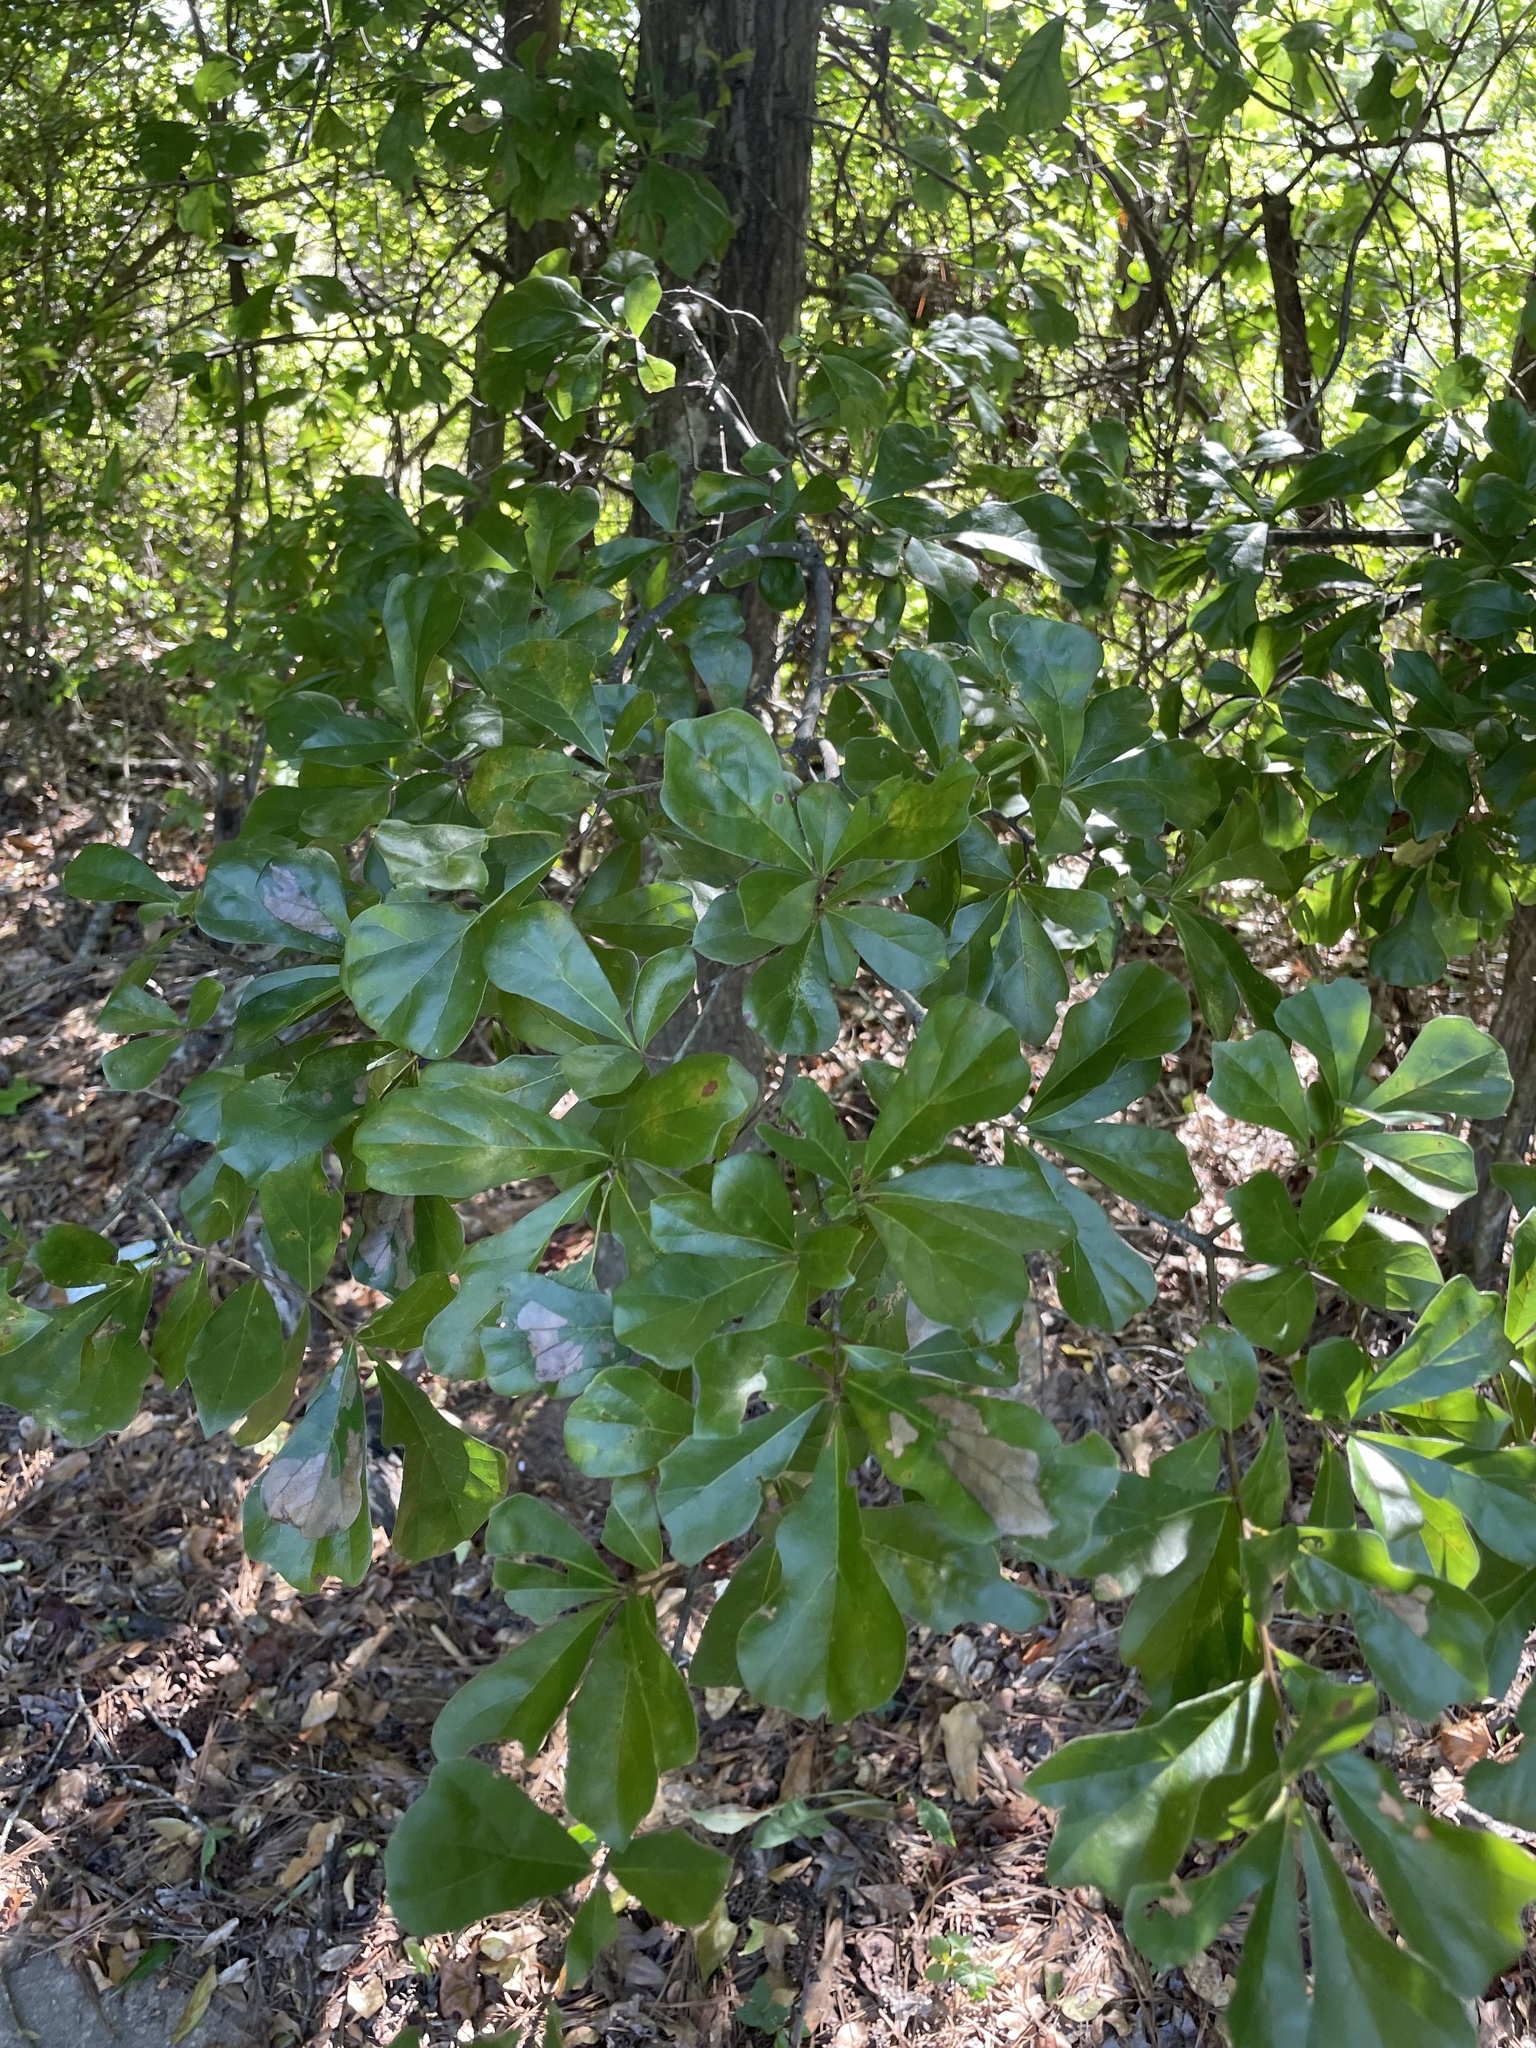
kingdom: Plantae
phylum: Tracheophyta
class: Magnoliopsida
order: Fagales
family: Fagaceae
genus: Quercus
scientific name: Quercus nigra
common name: Water oak
